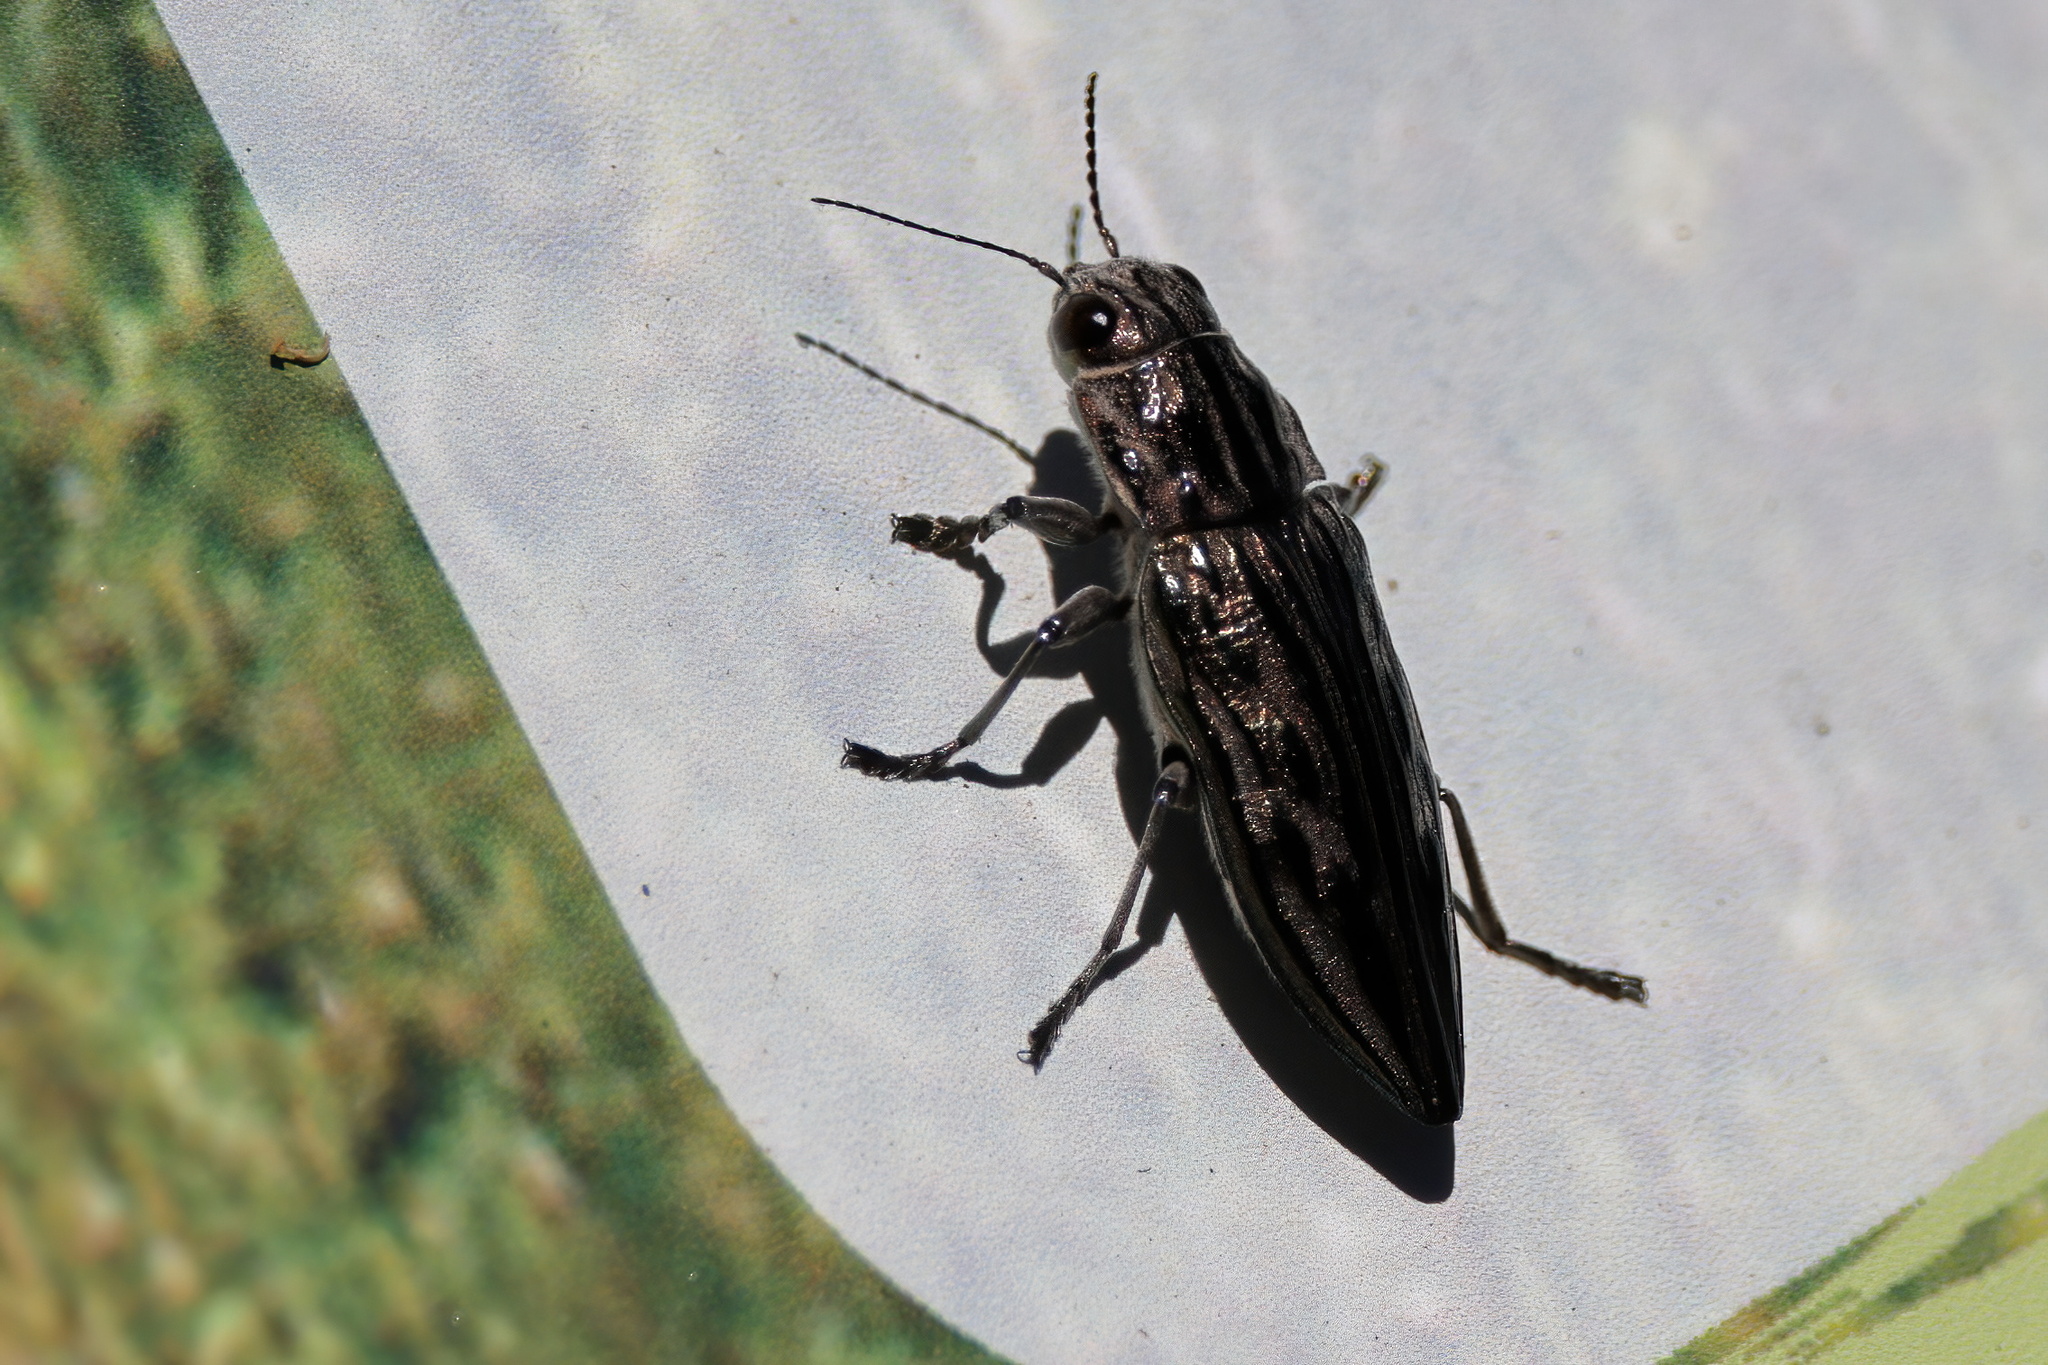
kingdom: Animalia
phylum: Arthropoda
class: Insecta
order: Coleoptera
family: Buprestidae
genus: Chalcophora
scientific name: Chalcophora georgiana
